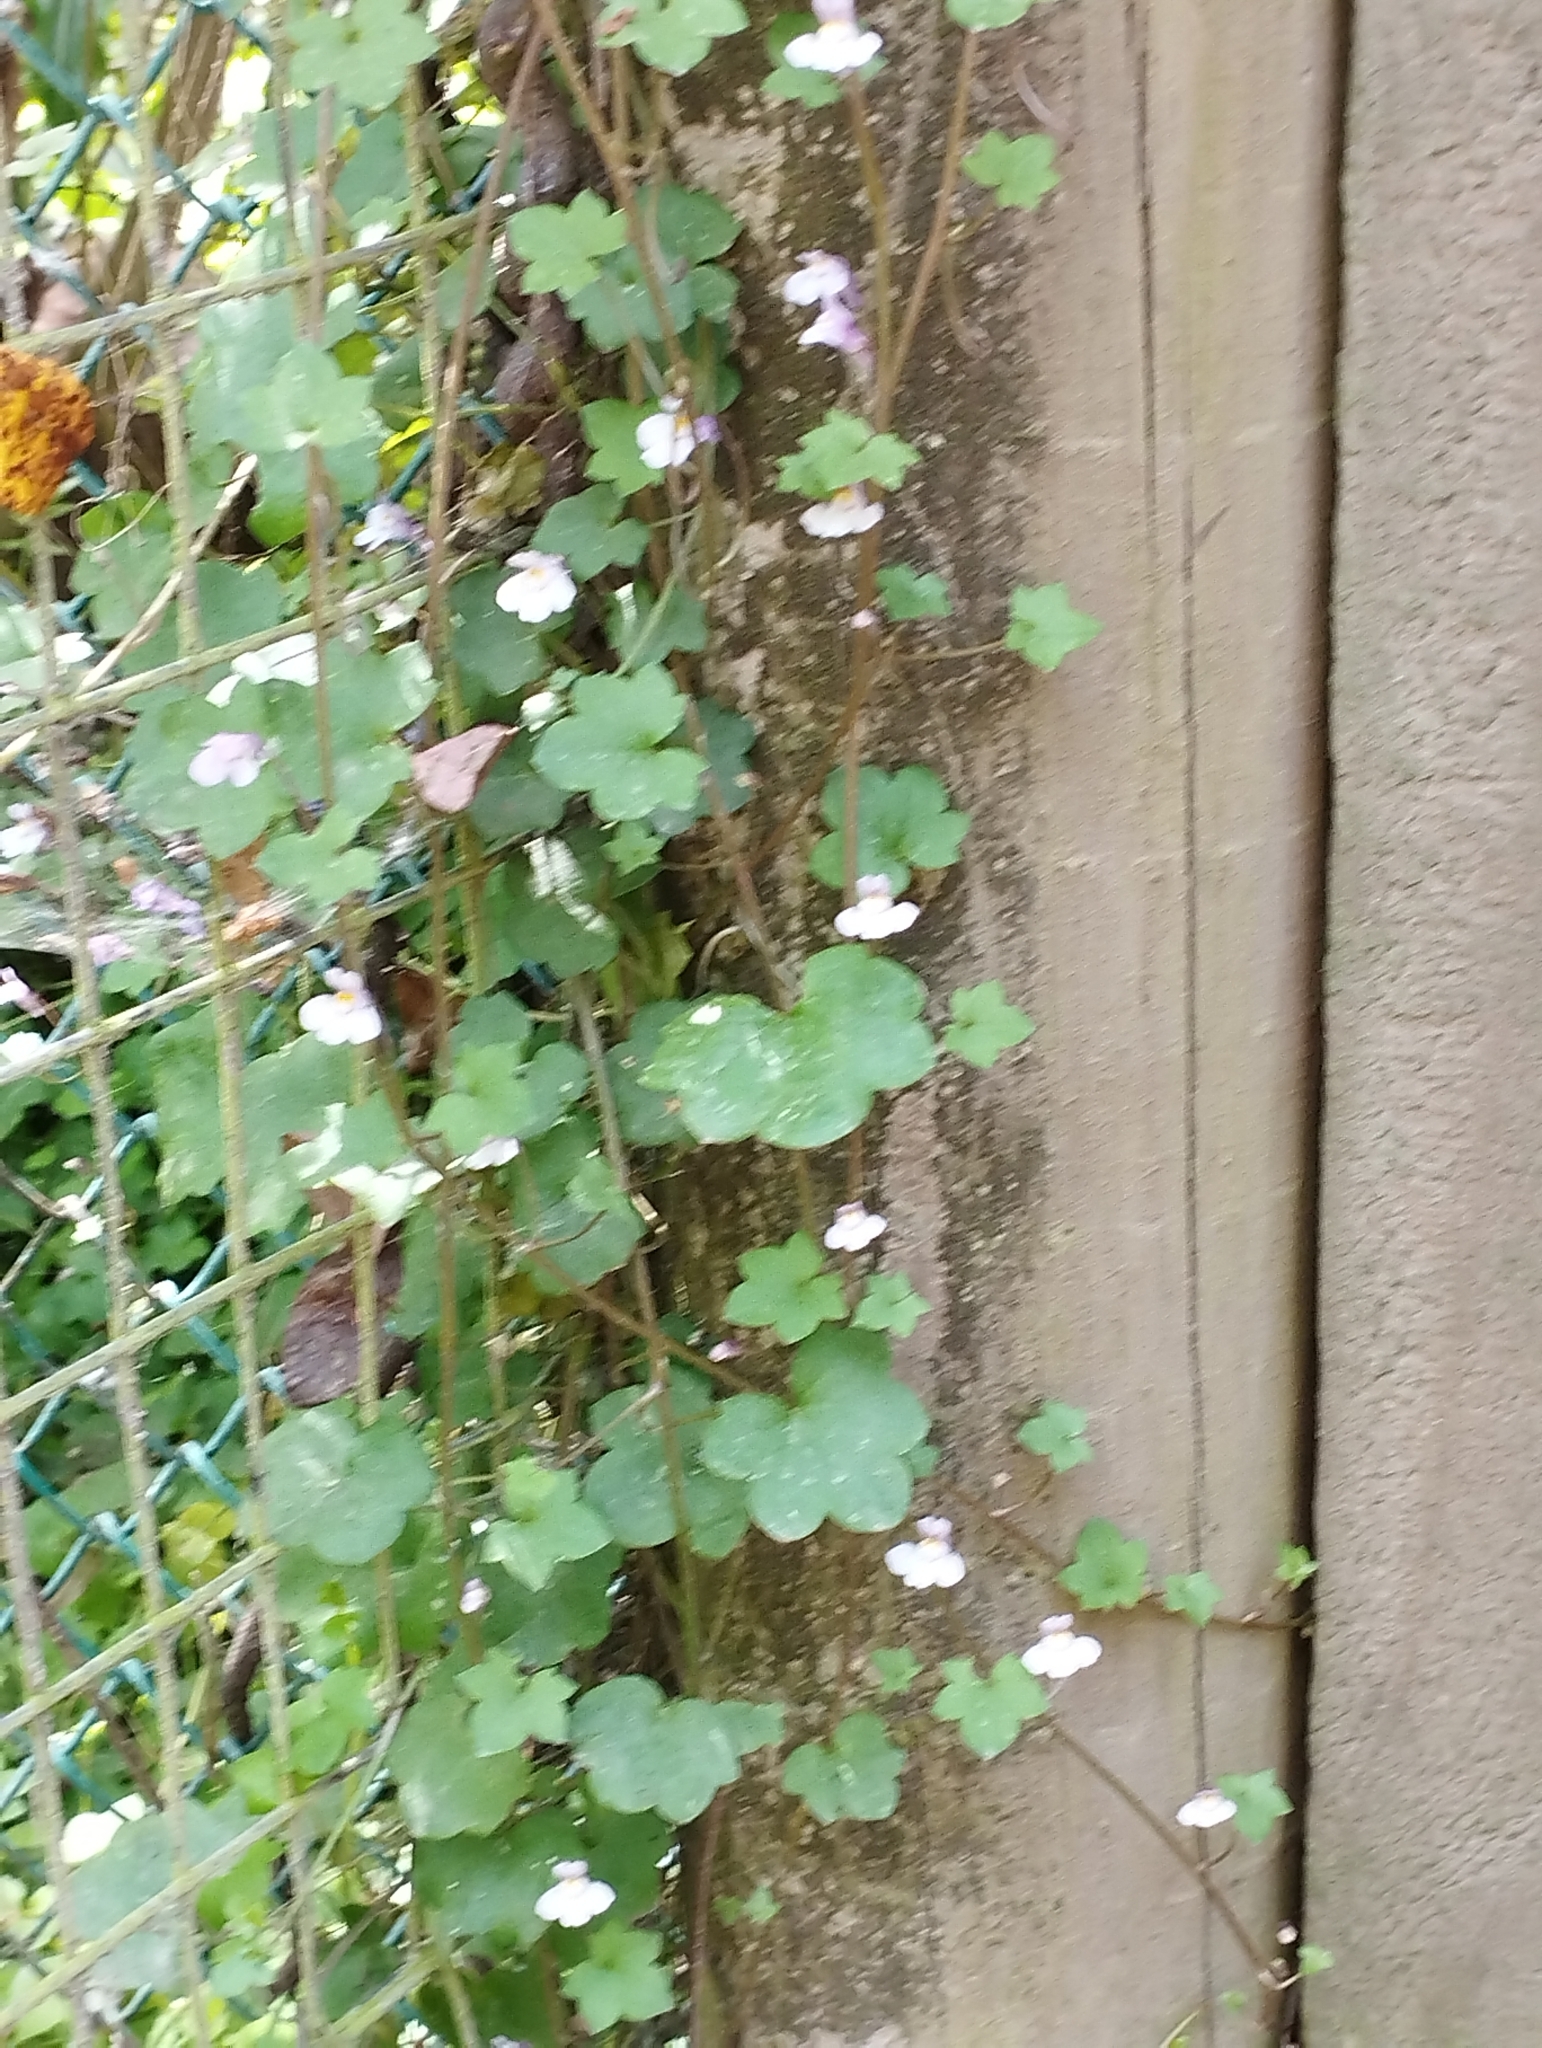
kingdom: Plantae
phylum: Tracheophyta
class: Magnoliopsida
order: Lamiales
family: Plantaginaceae
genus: Cymbalaria
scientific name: Cymbalaria muralis
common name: Ivy-leaved toadflax
